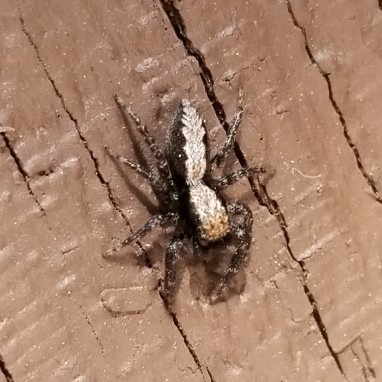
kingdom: Animalia
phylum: Arthropoda
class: Arachnida
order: Araneae
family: Salticidae
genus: Platycryptus
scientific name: Platycryptus californicus
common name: Jumping spiders
